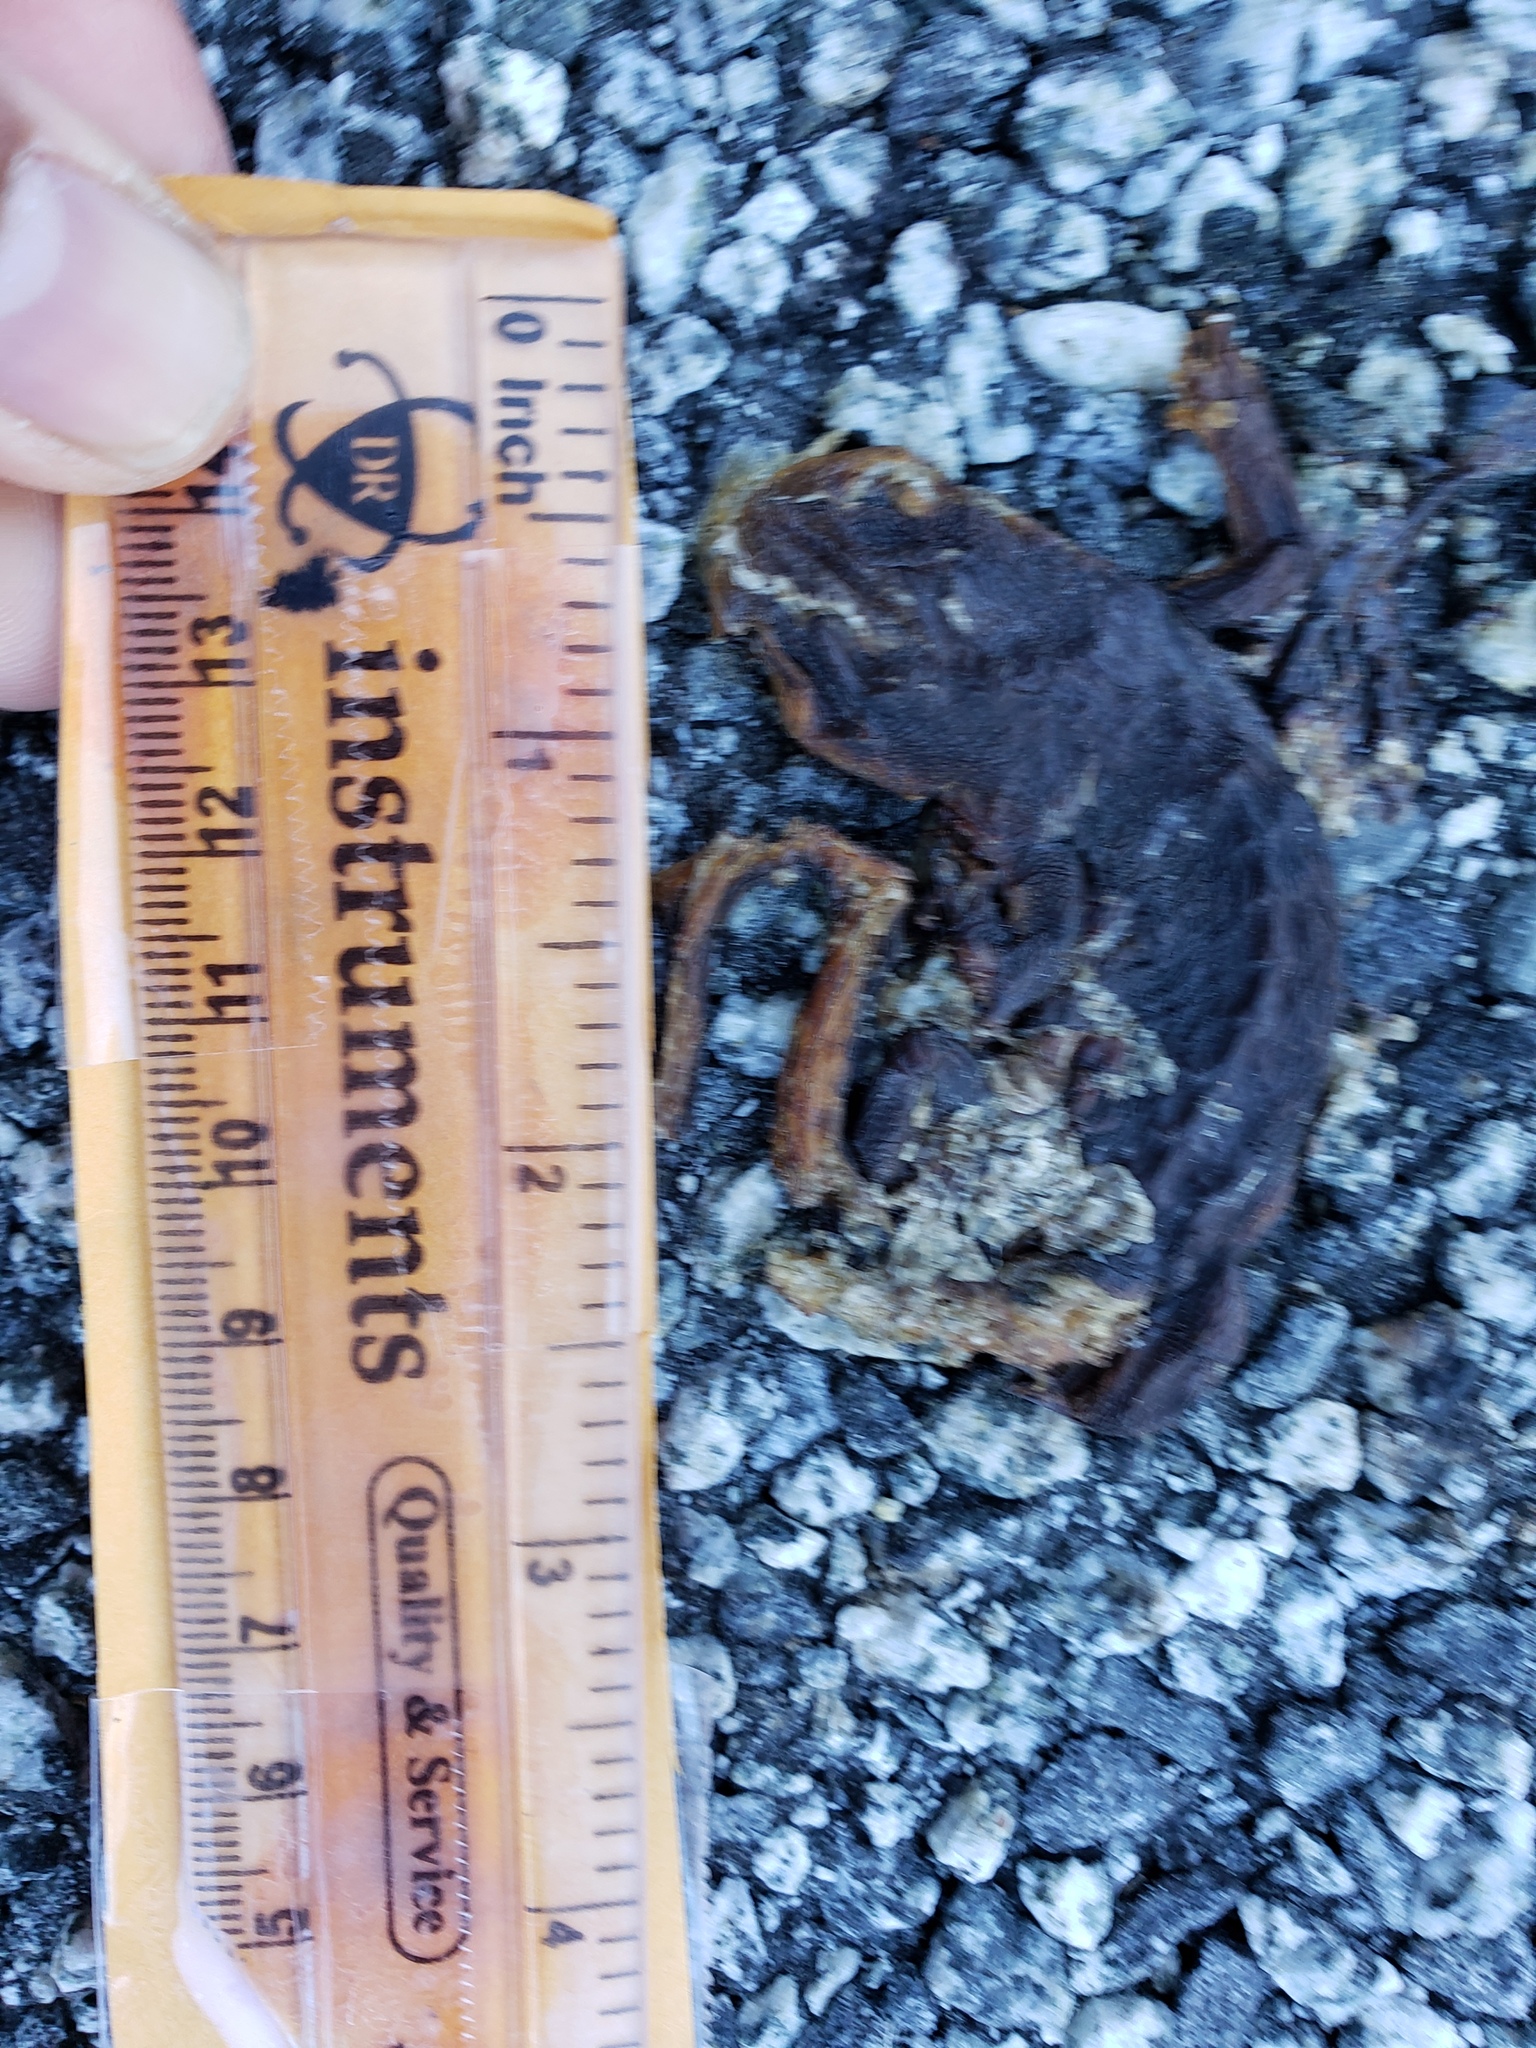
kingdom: Animalia
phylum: Chordata
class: Amphibia
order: Caudata
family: Salamandridae
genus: Taricha
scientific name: Taricha
